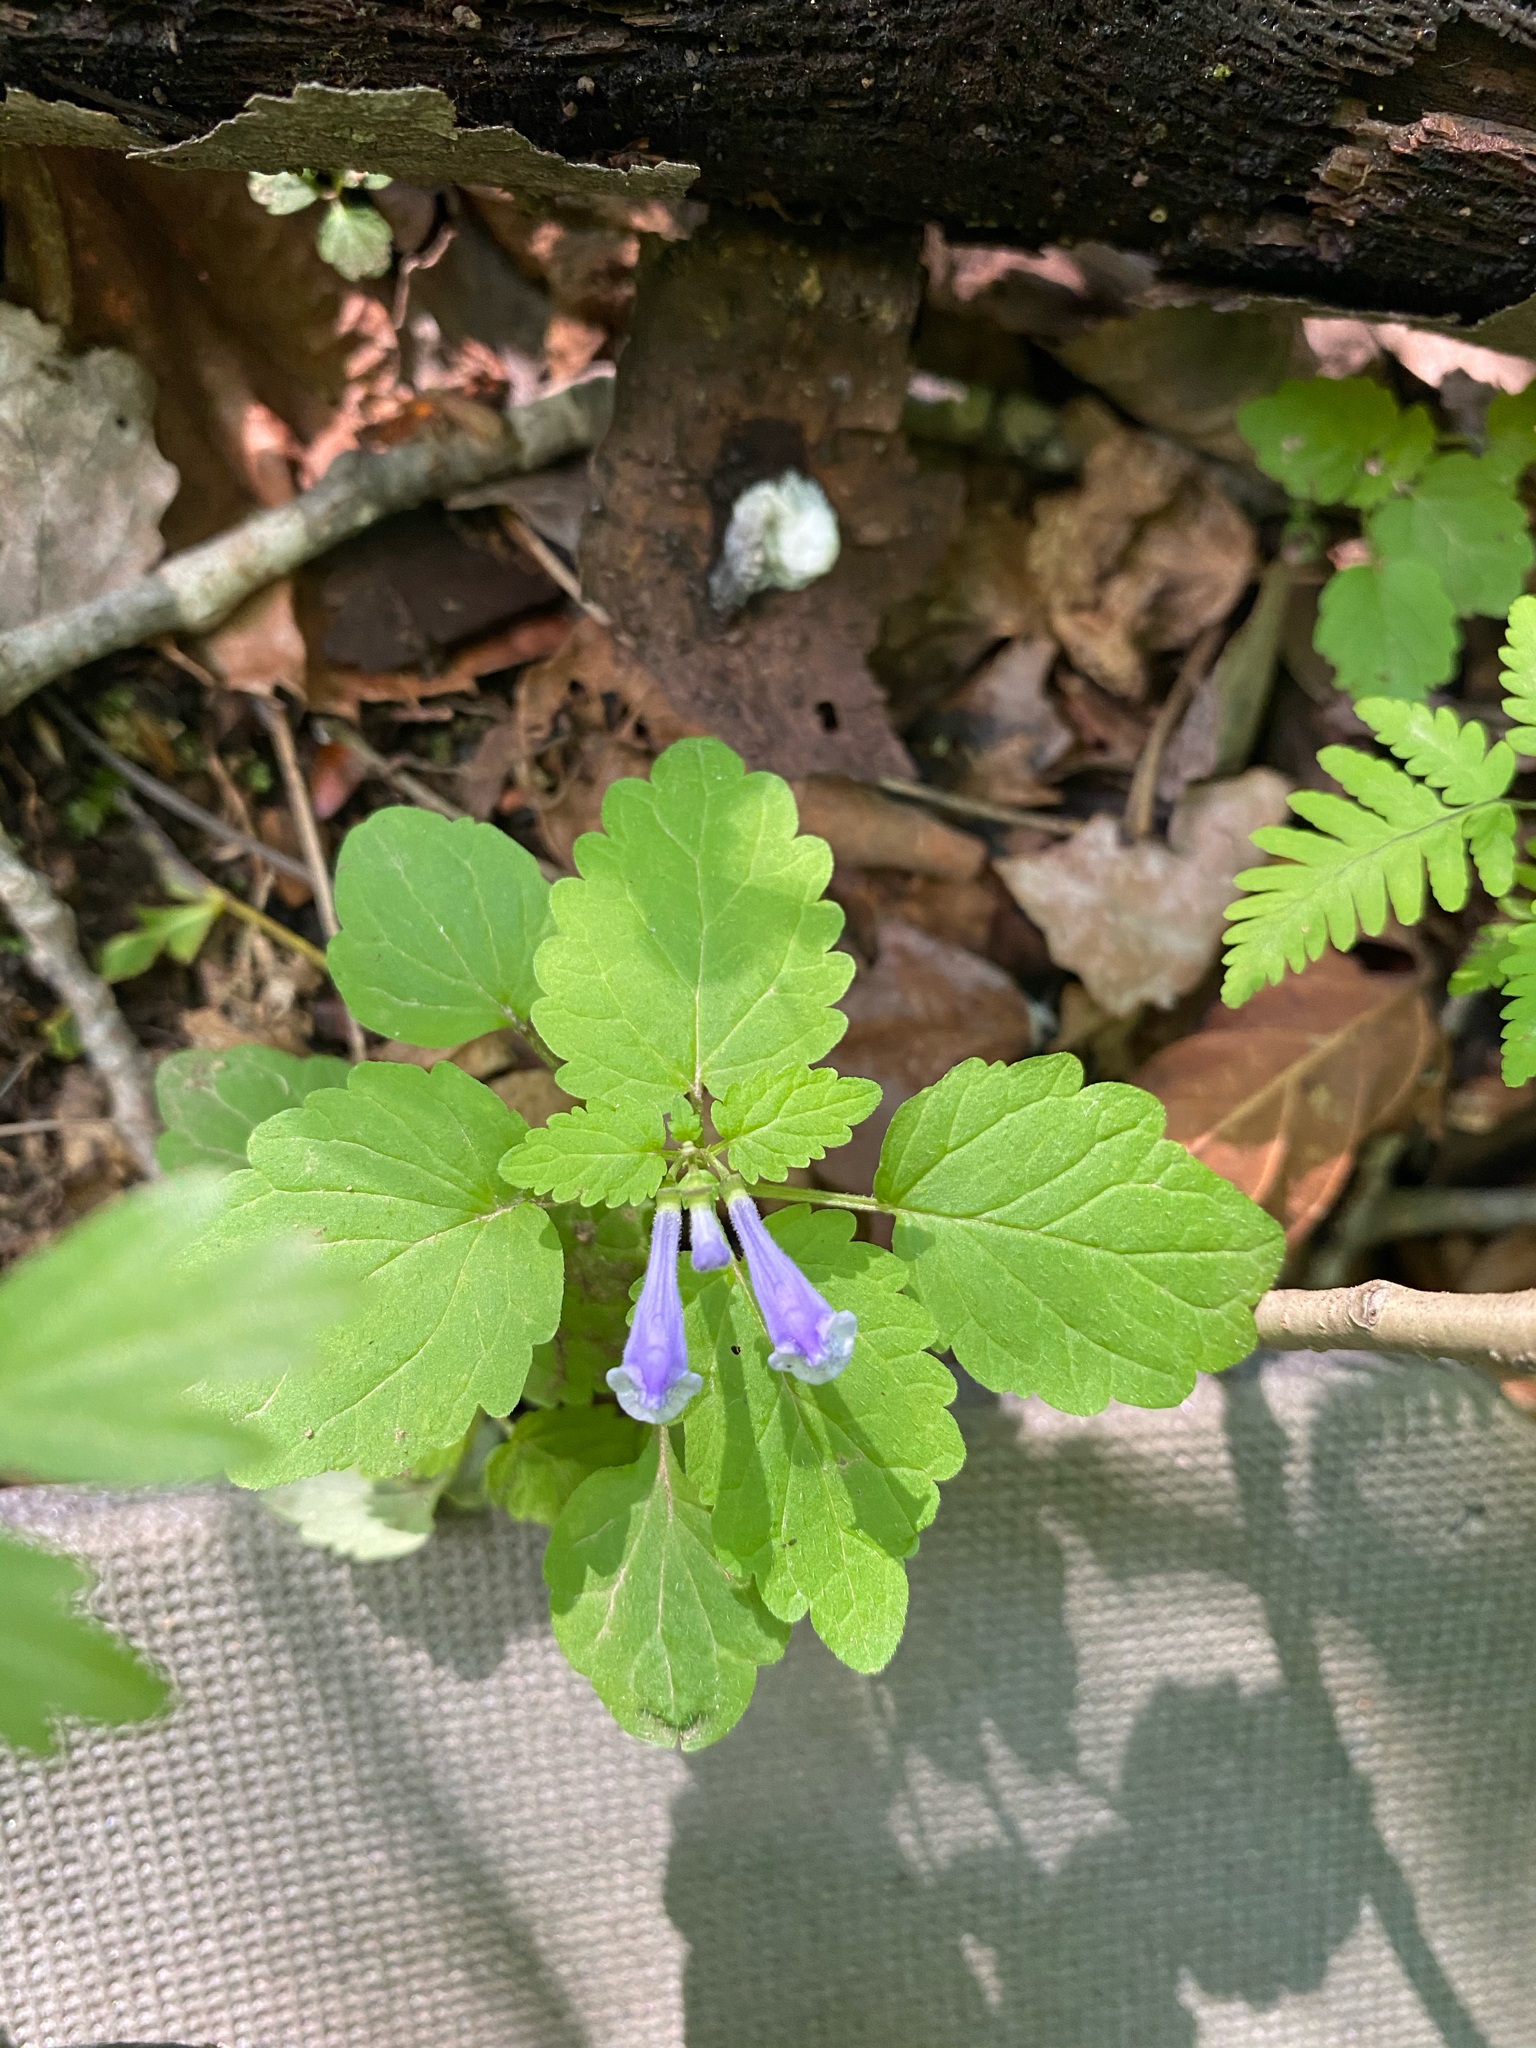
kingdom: Plantae
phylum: Tracheophyta
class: Magnoliopsida
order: Lamiales
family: Lamiaceae
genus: Scutellaria
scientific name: Scutellaria pekinensis
